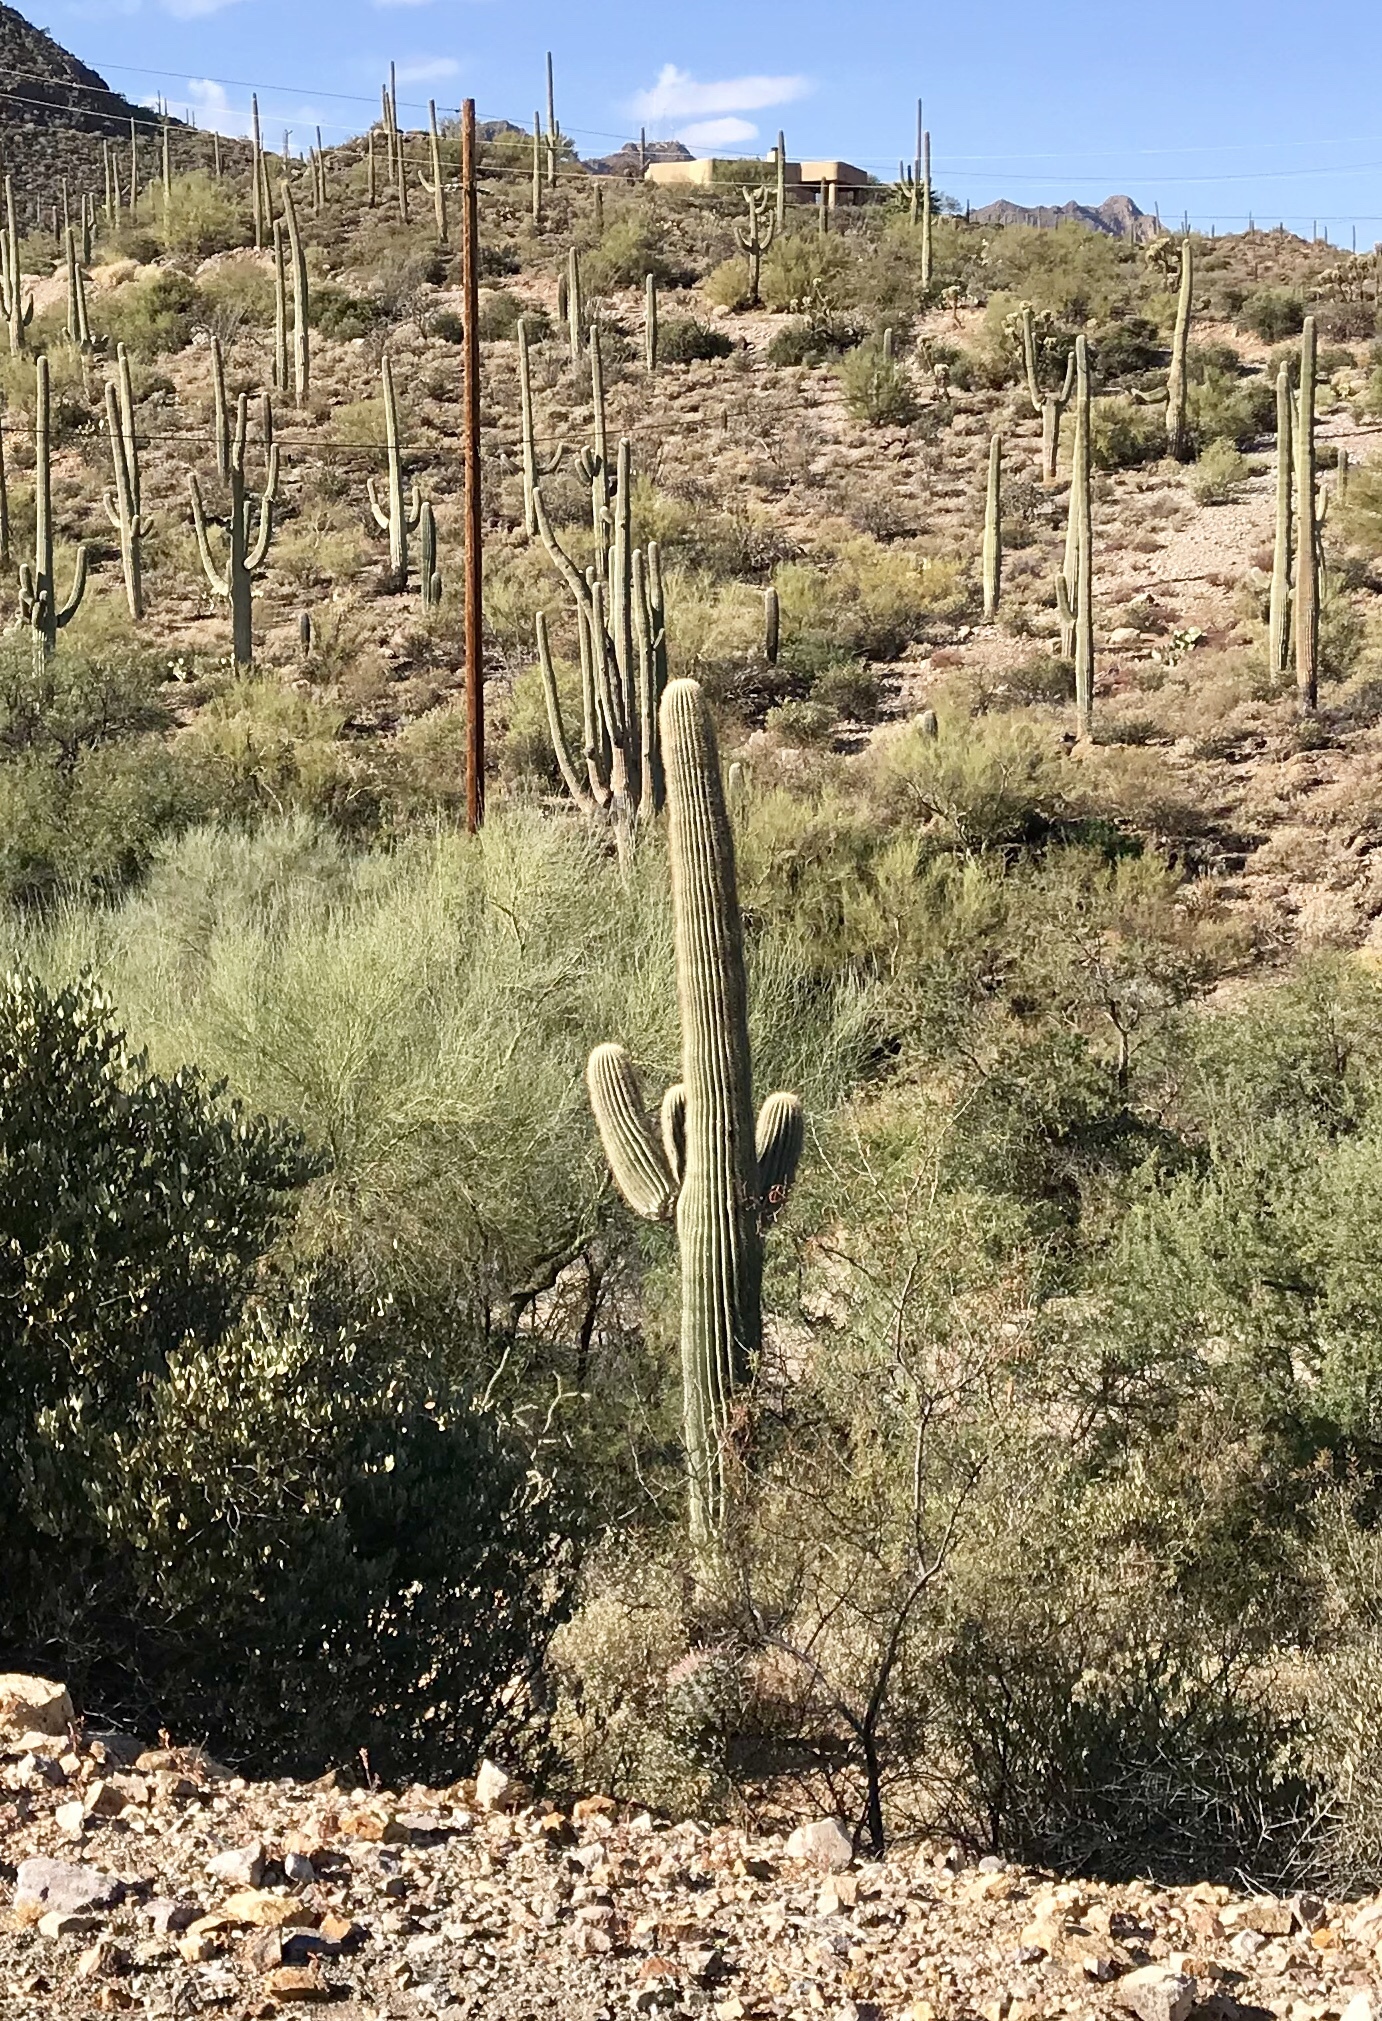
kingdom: Plantae
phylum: Tracheophyta
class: Magnoliopsida
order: Caryophyllales
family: Cactaceae
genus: Carnegiea
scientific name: Carnegiea gigantea
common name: Saguaro
